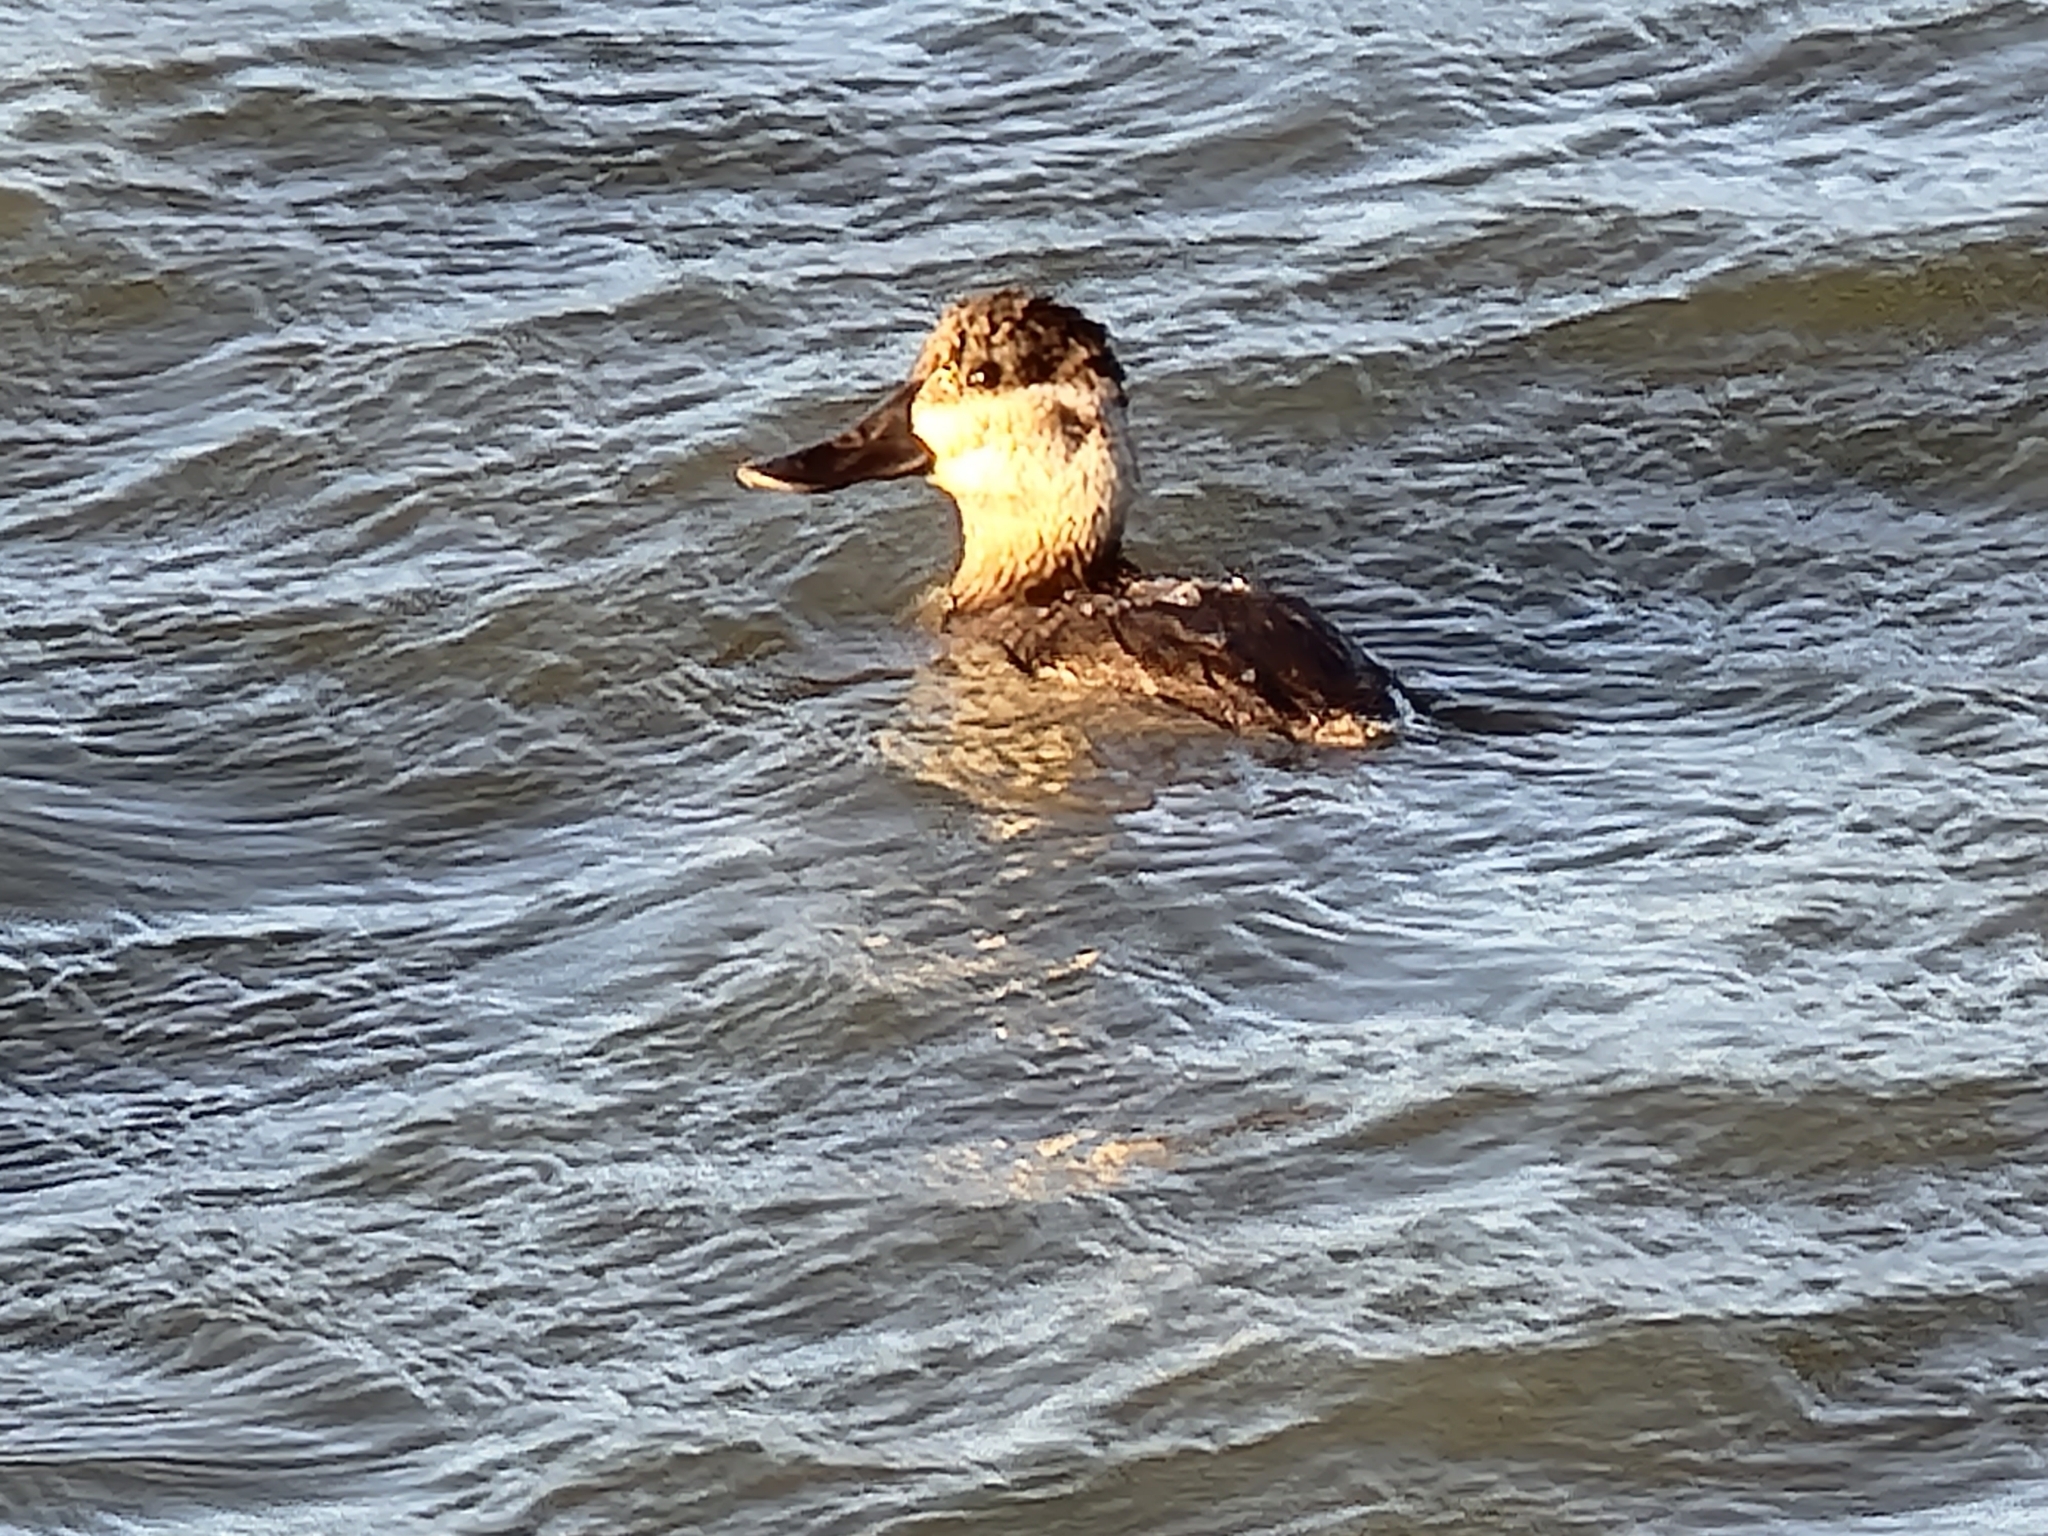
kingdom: Animalia
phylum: Chordata
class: Aves
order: Anseriformes
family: Anatidae
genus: Oxyura
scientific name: Oxyura jamaicensis
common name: Ruddy duck
